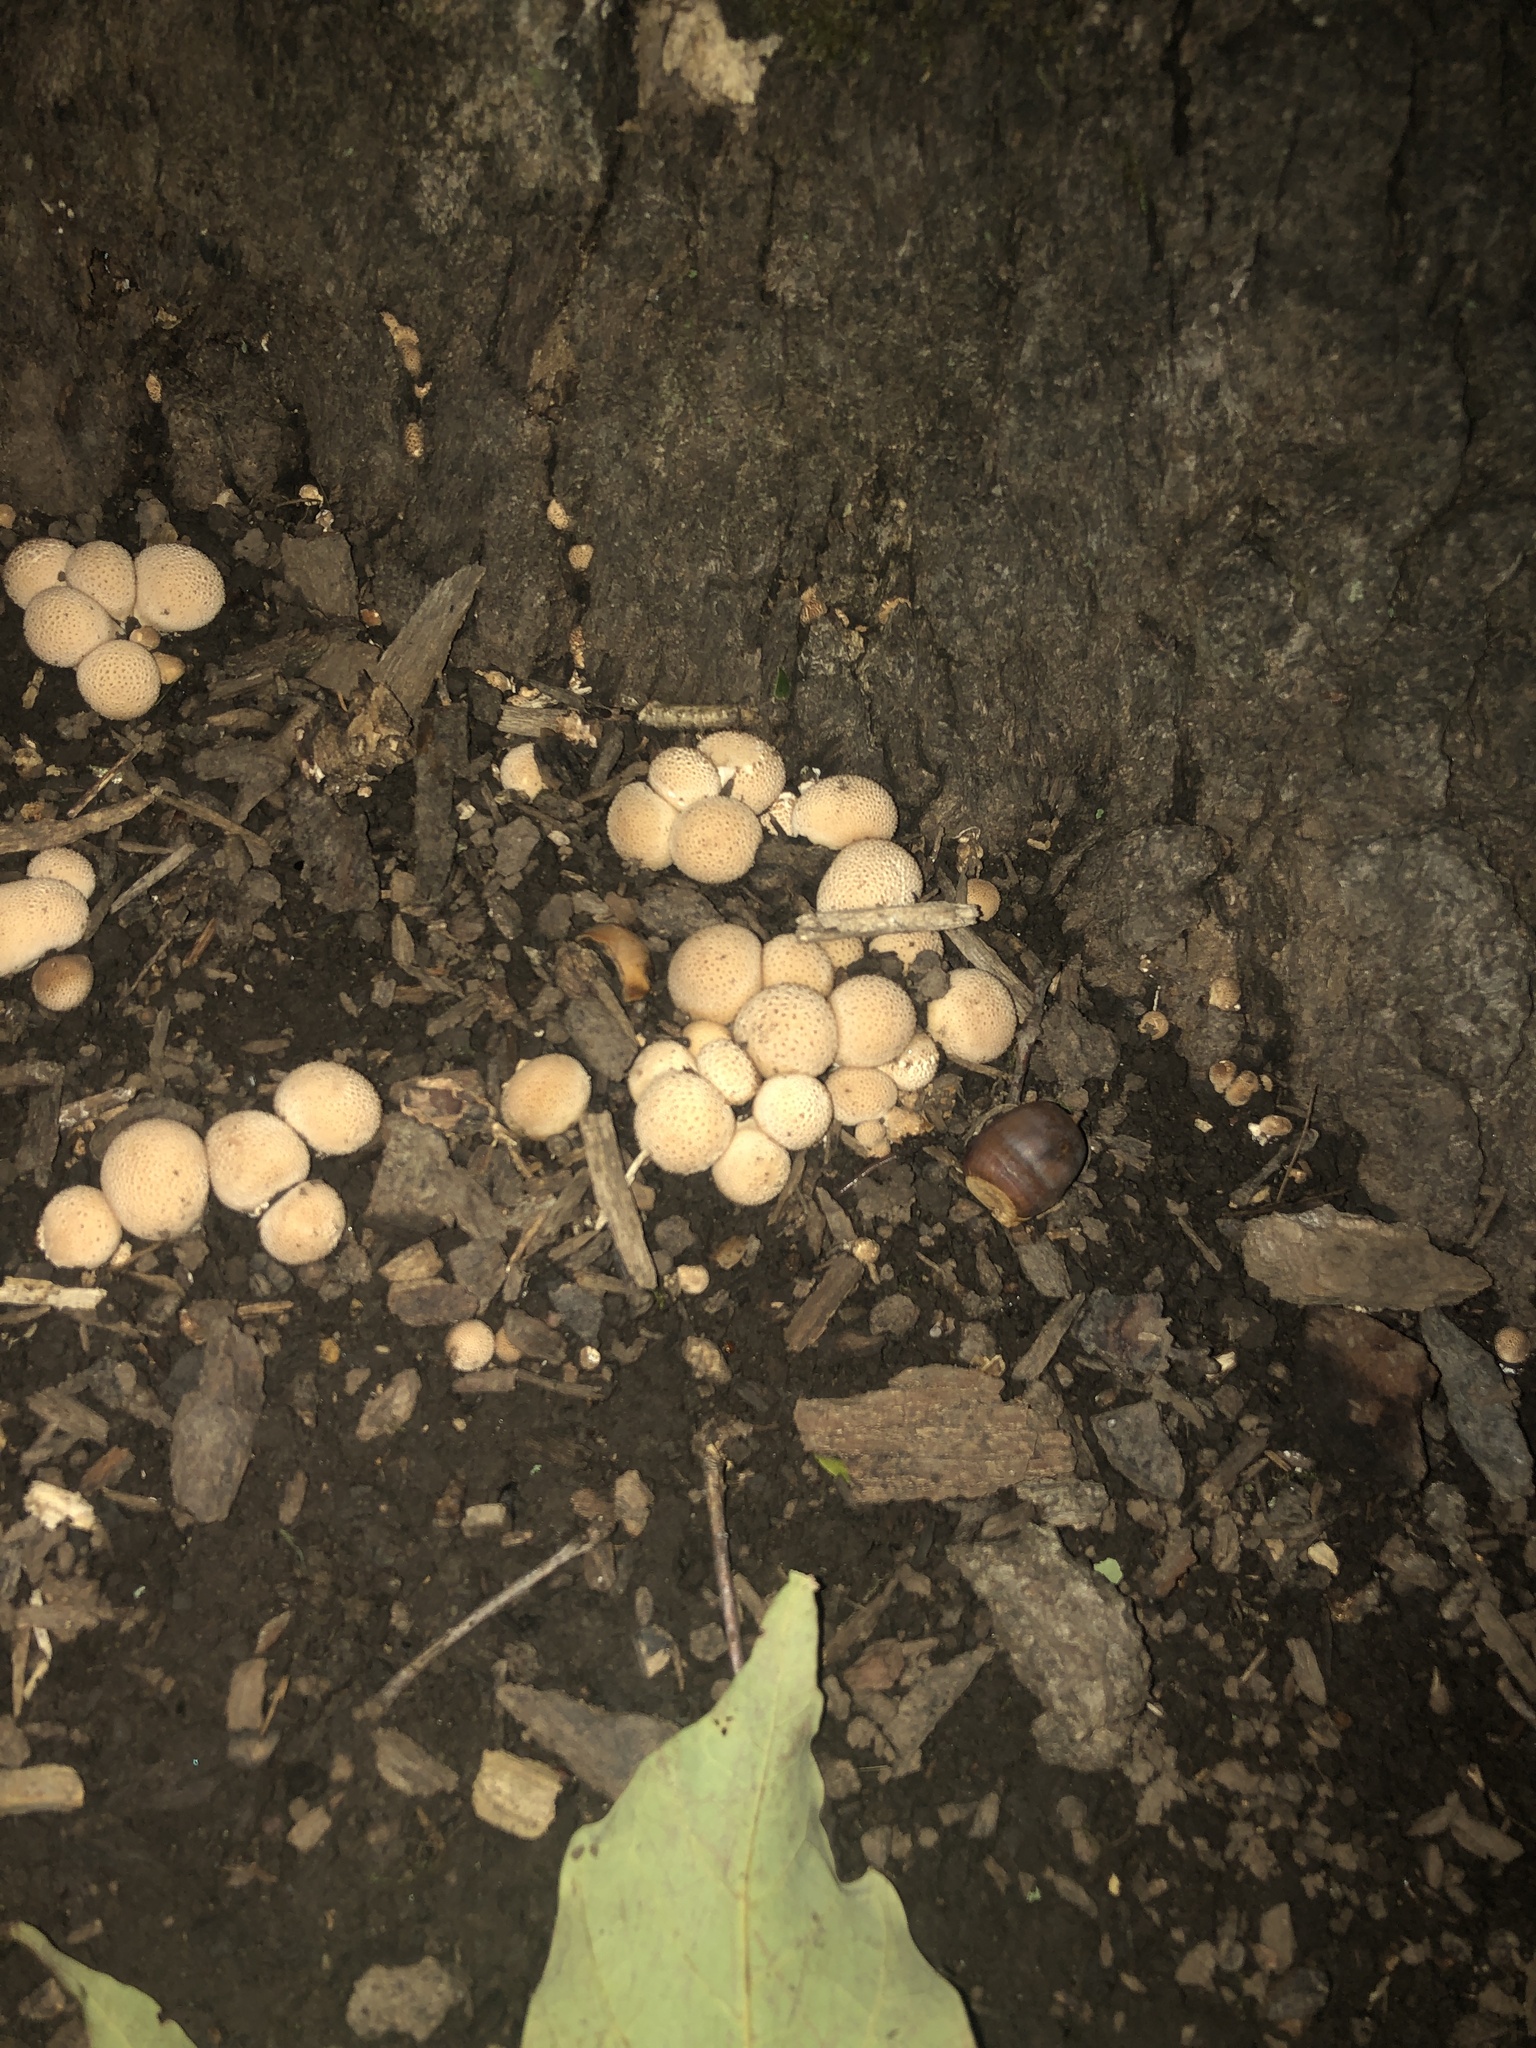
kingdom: Fungi
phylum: Basidiomycota
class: Agaricomycetes
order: Agaricales
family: Lycoperdaceae
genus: Apioperdon
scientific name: Apioperdon pyriforme
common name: Pear-shaped puffball
